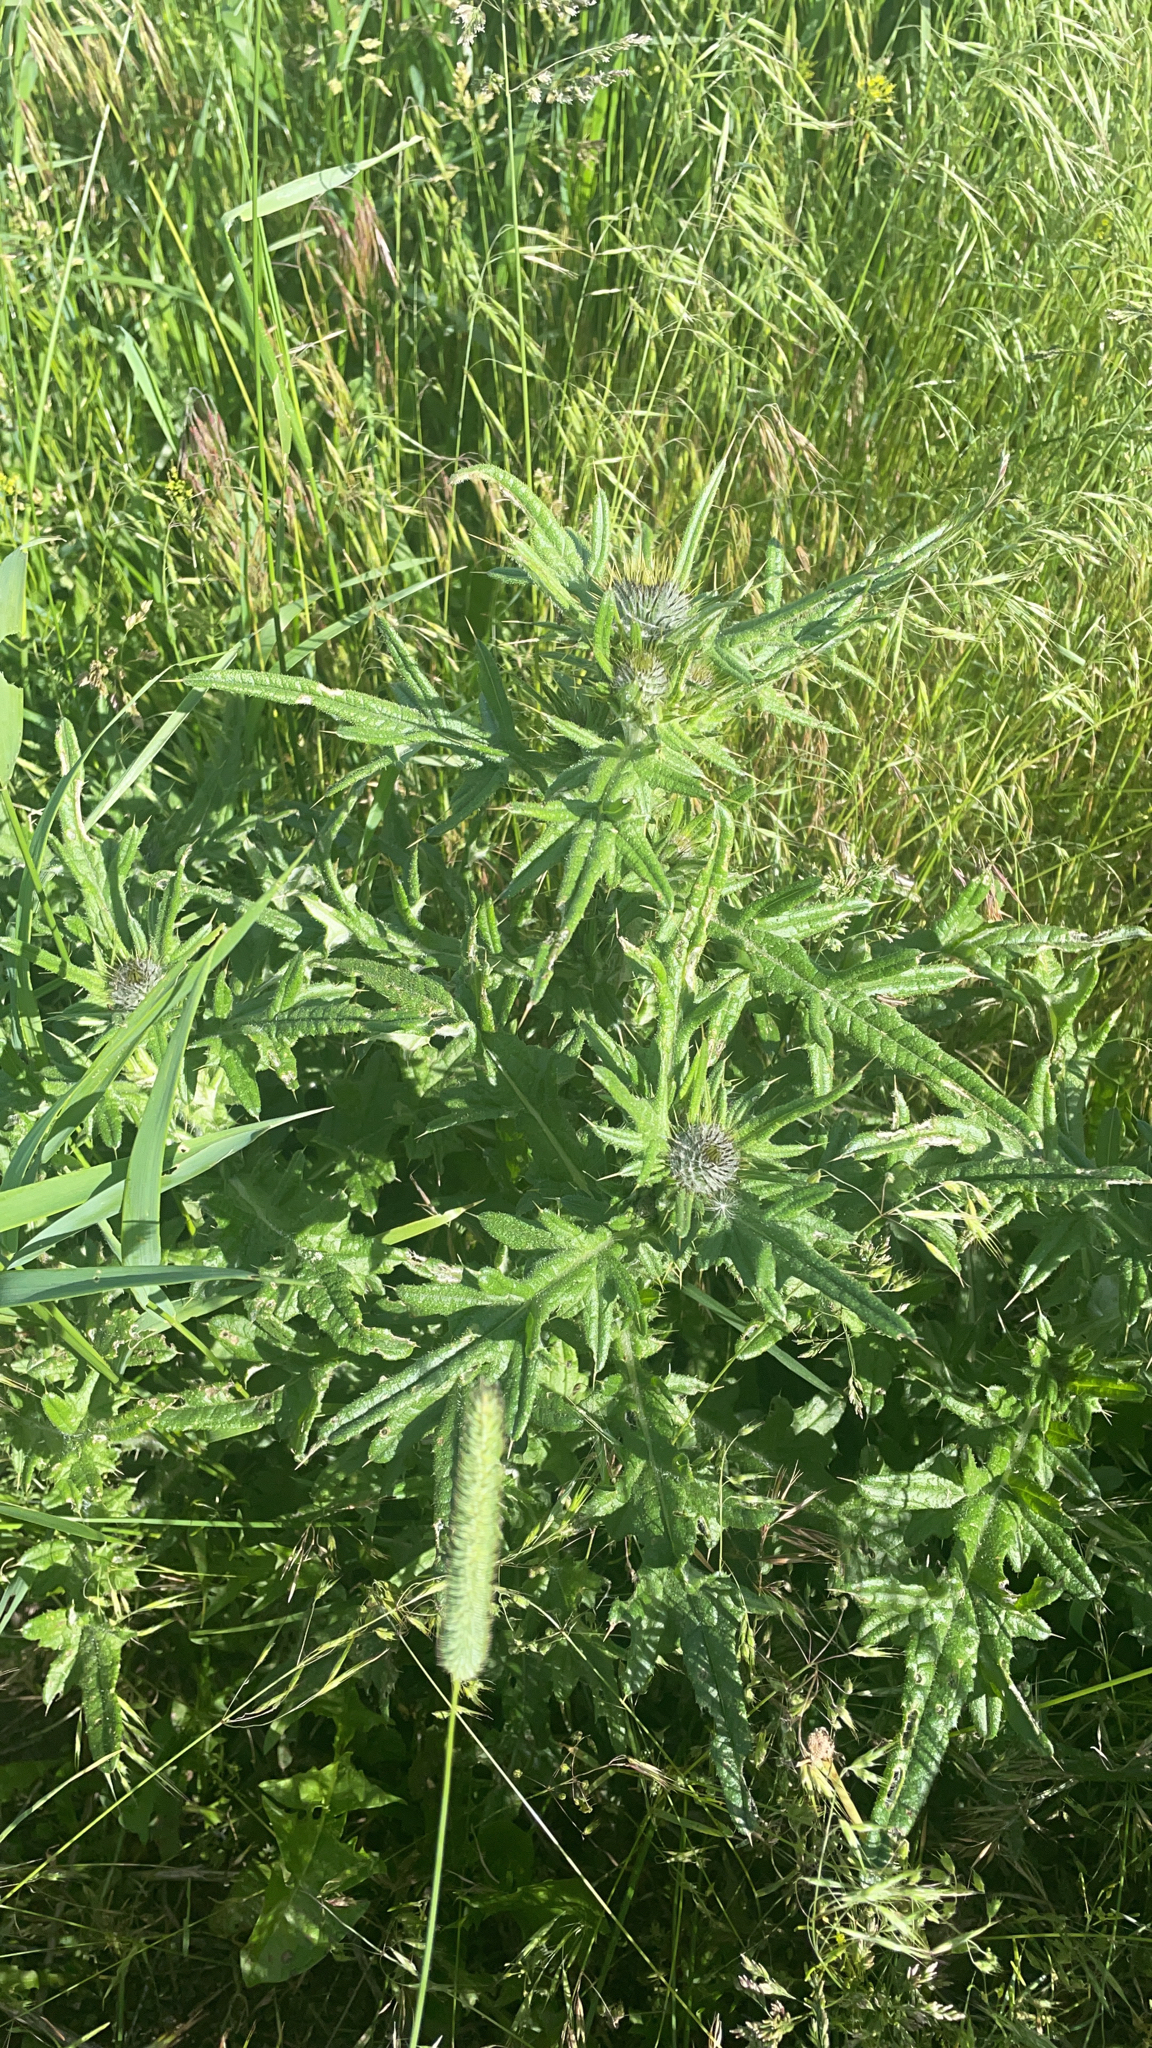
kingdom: Plantae
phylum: Tracheophyta
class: Magnoliopsida
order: Asterales
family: Asteraceae
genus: Cirsium
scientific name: Cirsium vulgare
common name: Bull thistle
